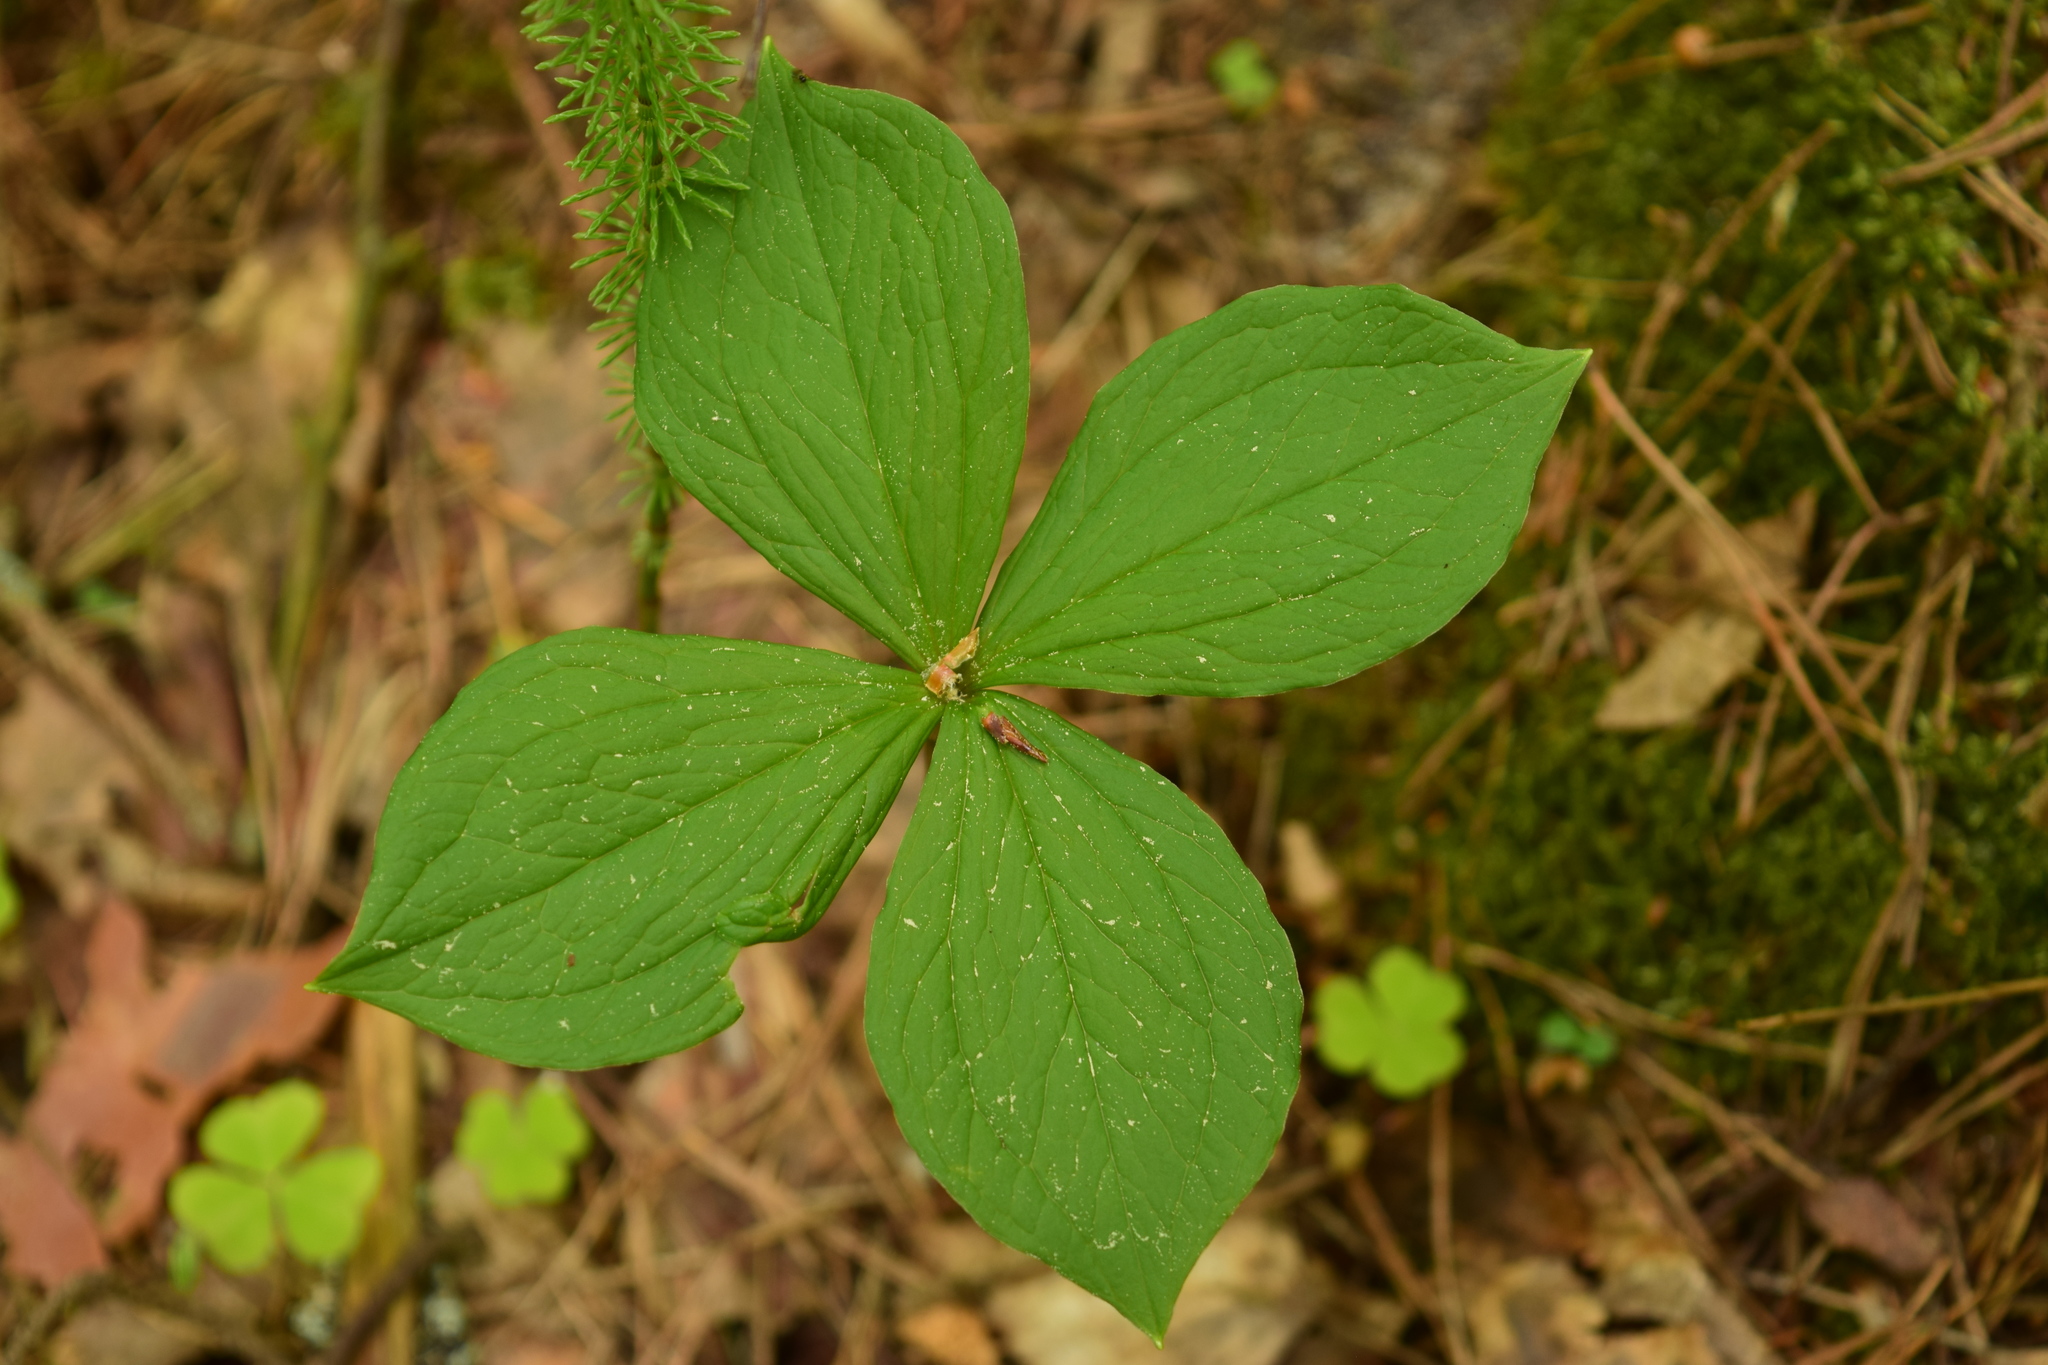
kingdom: Plantae
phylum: Tracheophyta
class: Liliopsida
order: Liliales
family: Melanthiaceae
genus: Paris
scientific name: Paris quadrifolia
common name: Herb-paris
